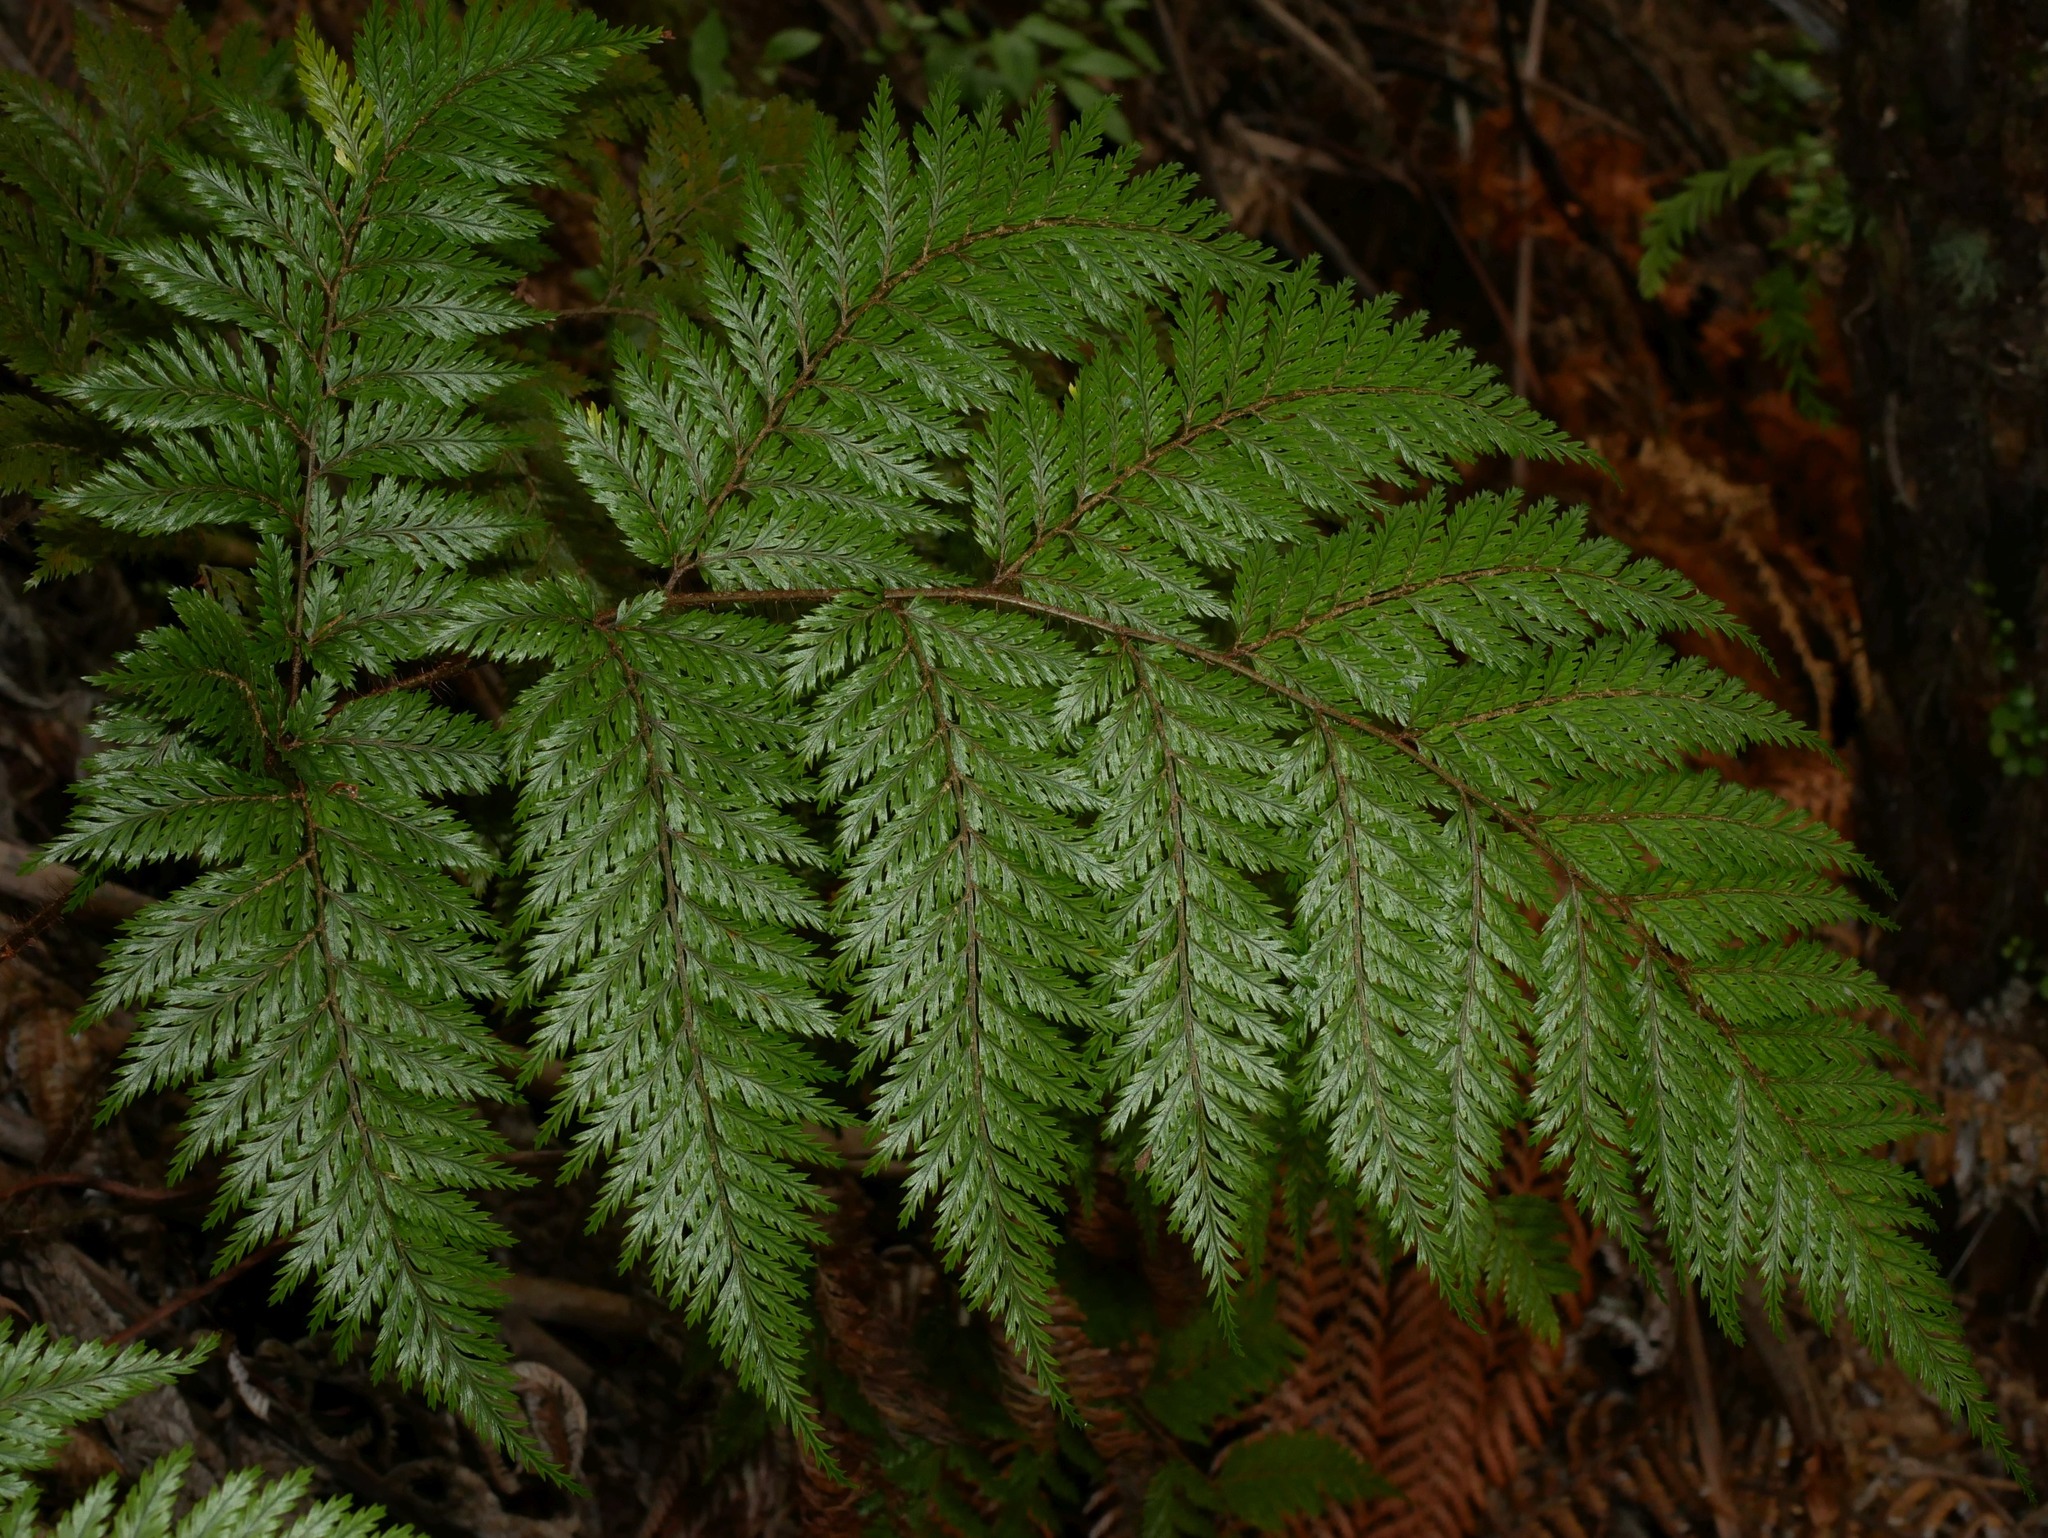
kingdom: Plantae
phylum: Tracheophyta
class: Polypodiopsida
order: Polypodiales
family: Dryopteridaceae
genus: Lastreopsis
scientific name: Lastreopsis hispida
